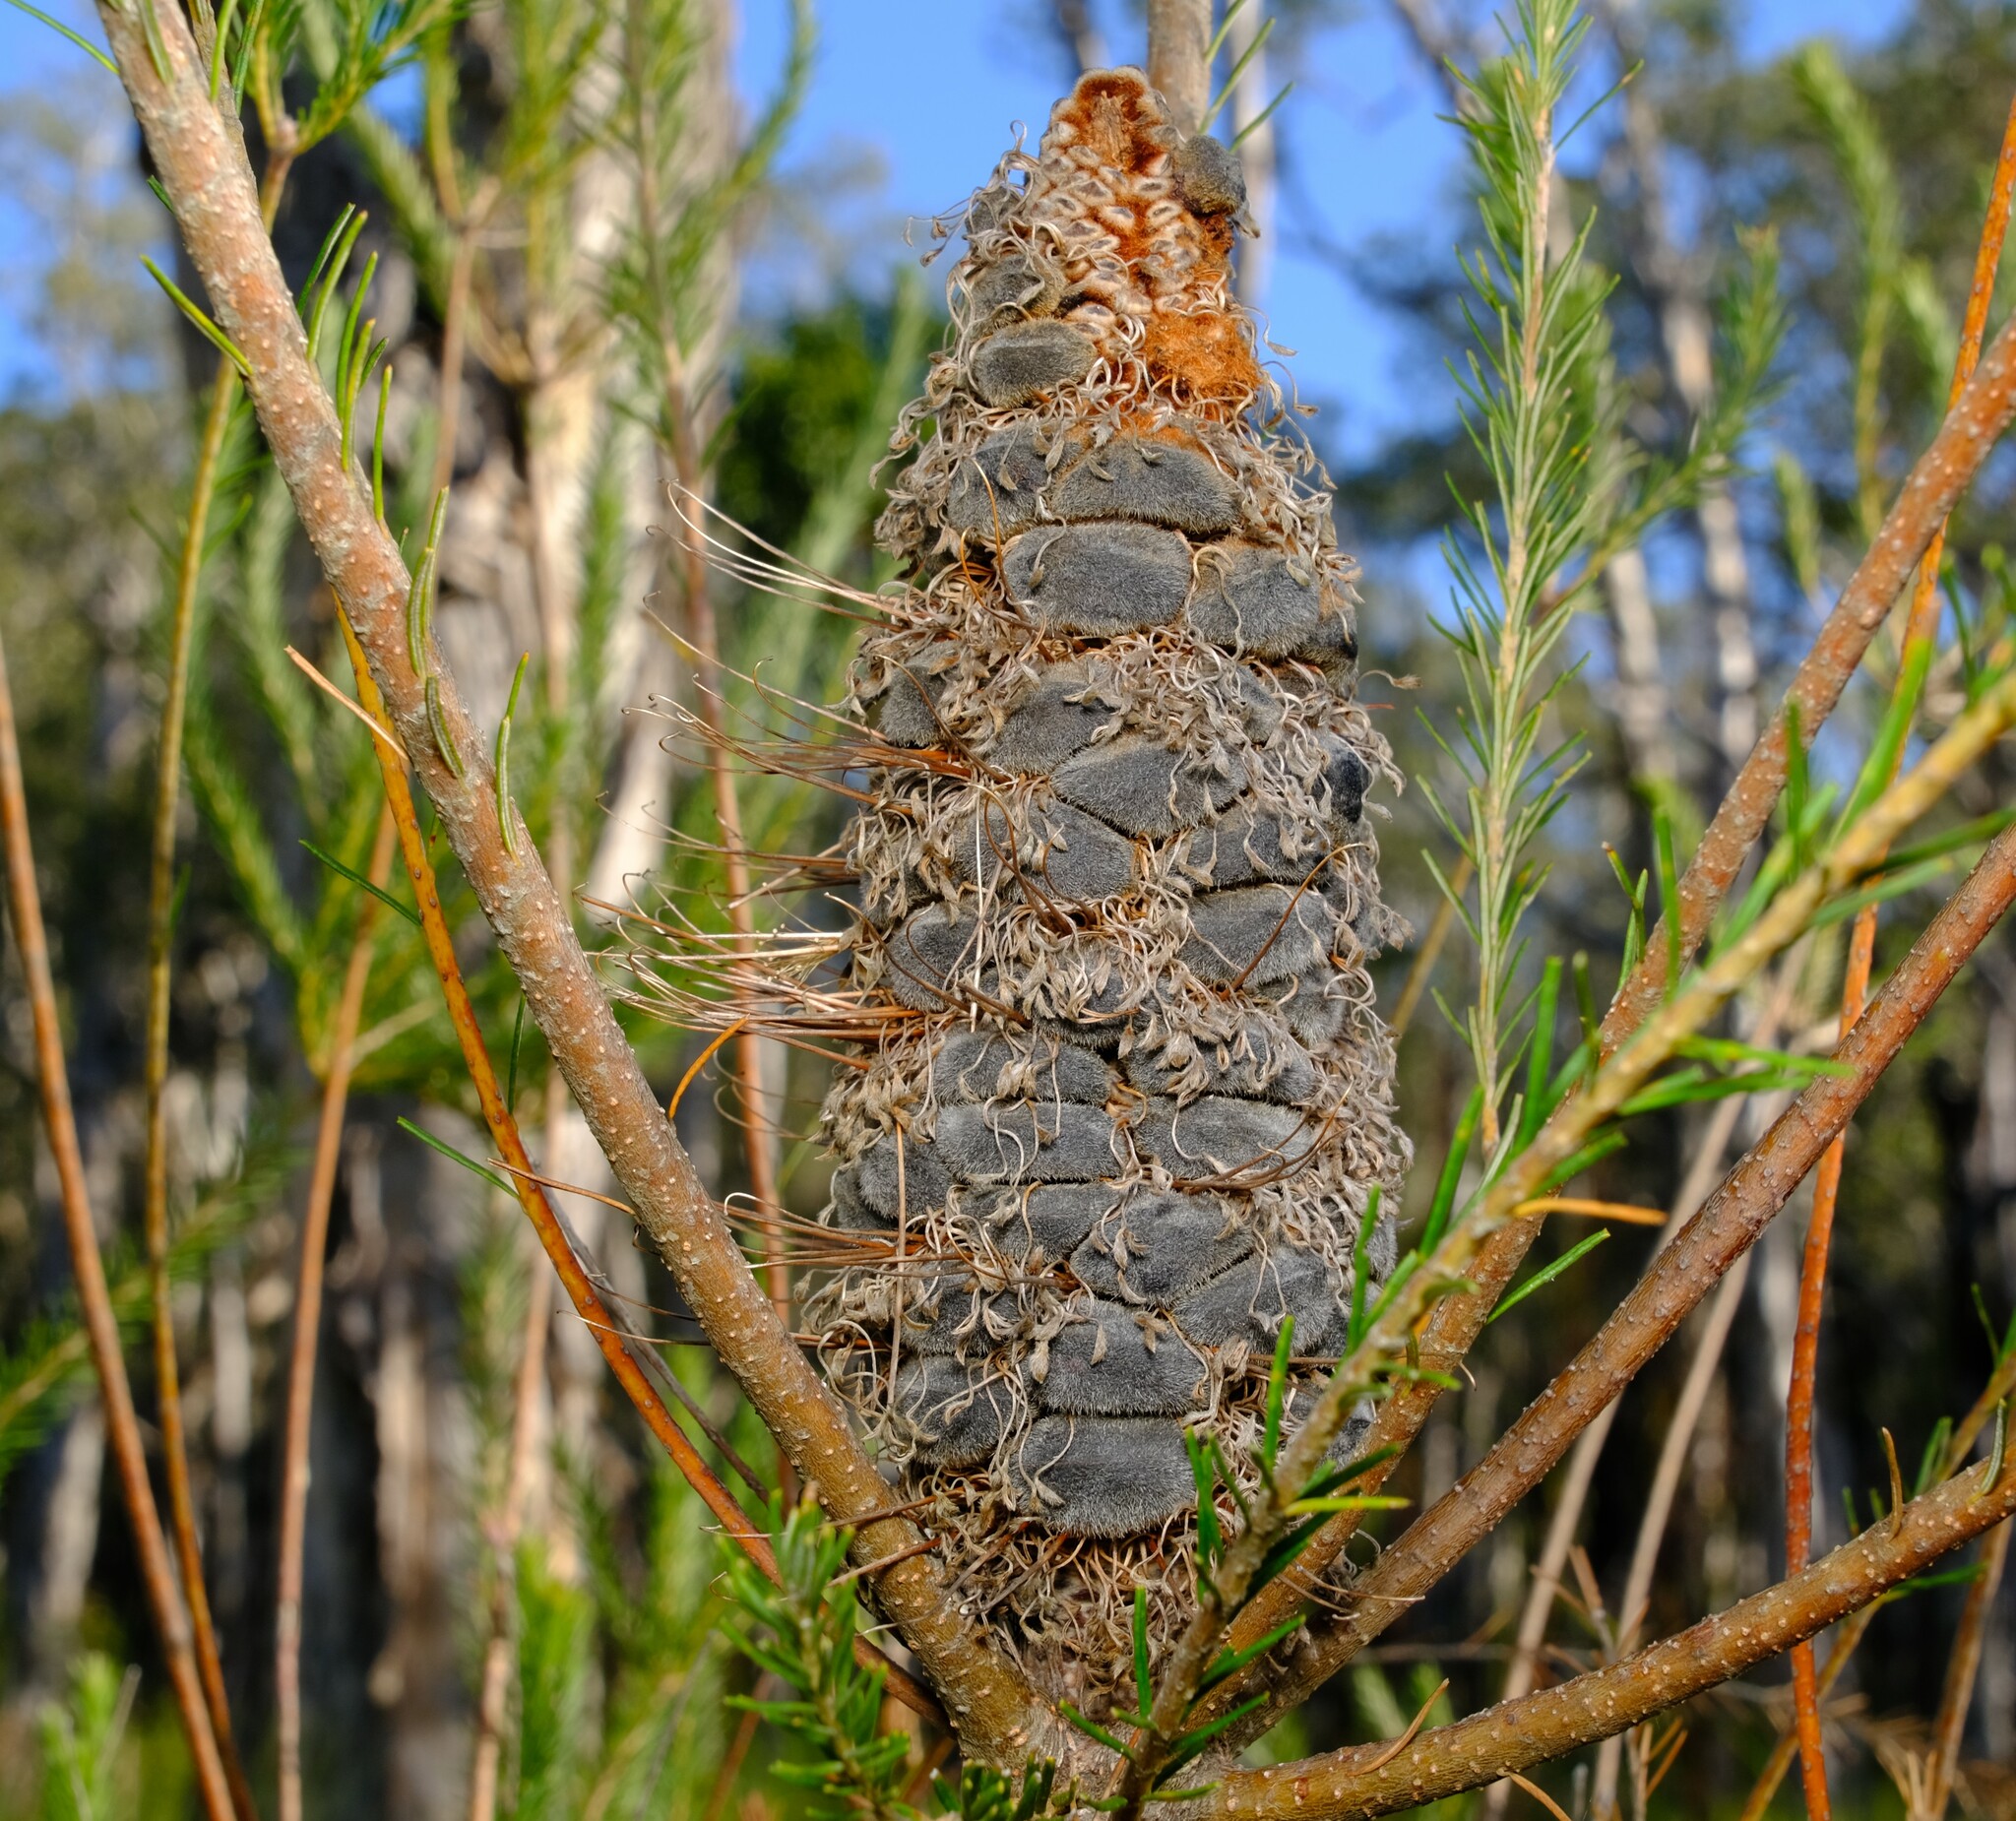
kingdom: Plantae
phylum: Tracheophyta
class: Magnoliopsida
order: Proteales
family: Proteaceae
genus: Banksia
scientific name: Banksia ericifolia
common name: Heath-leaf banksia
